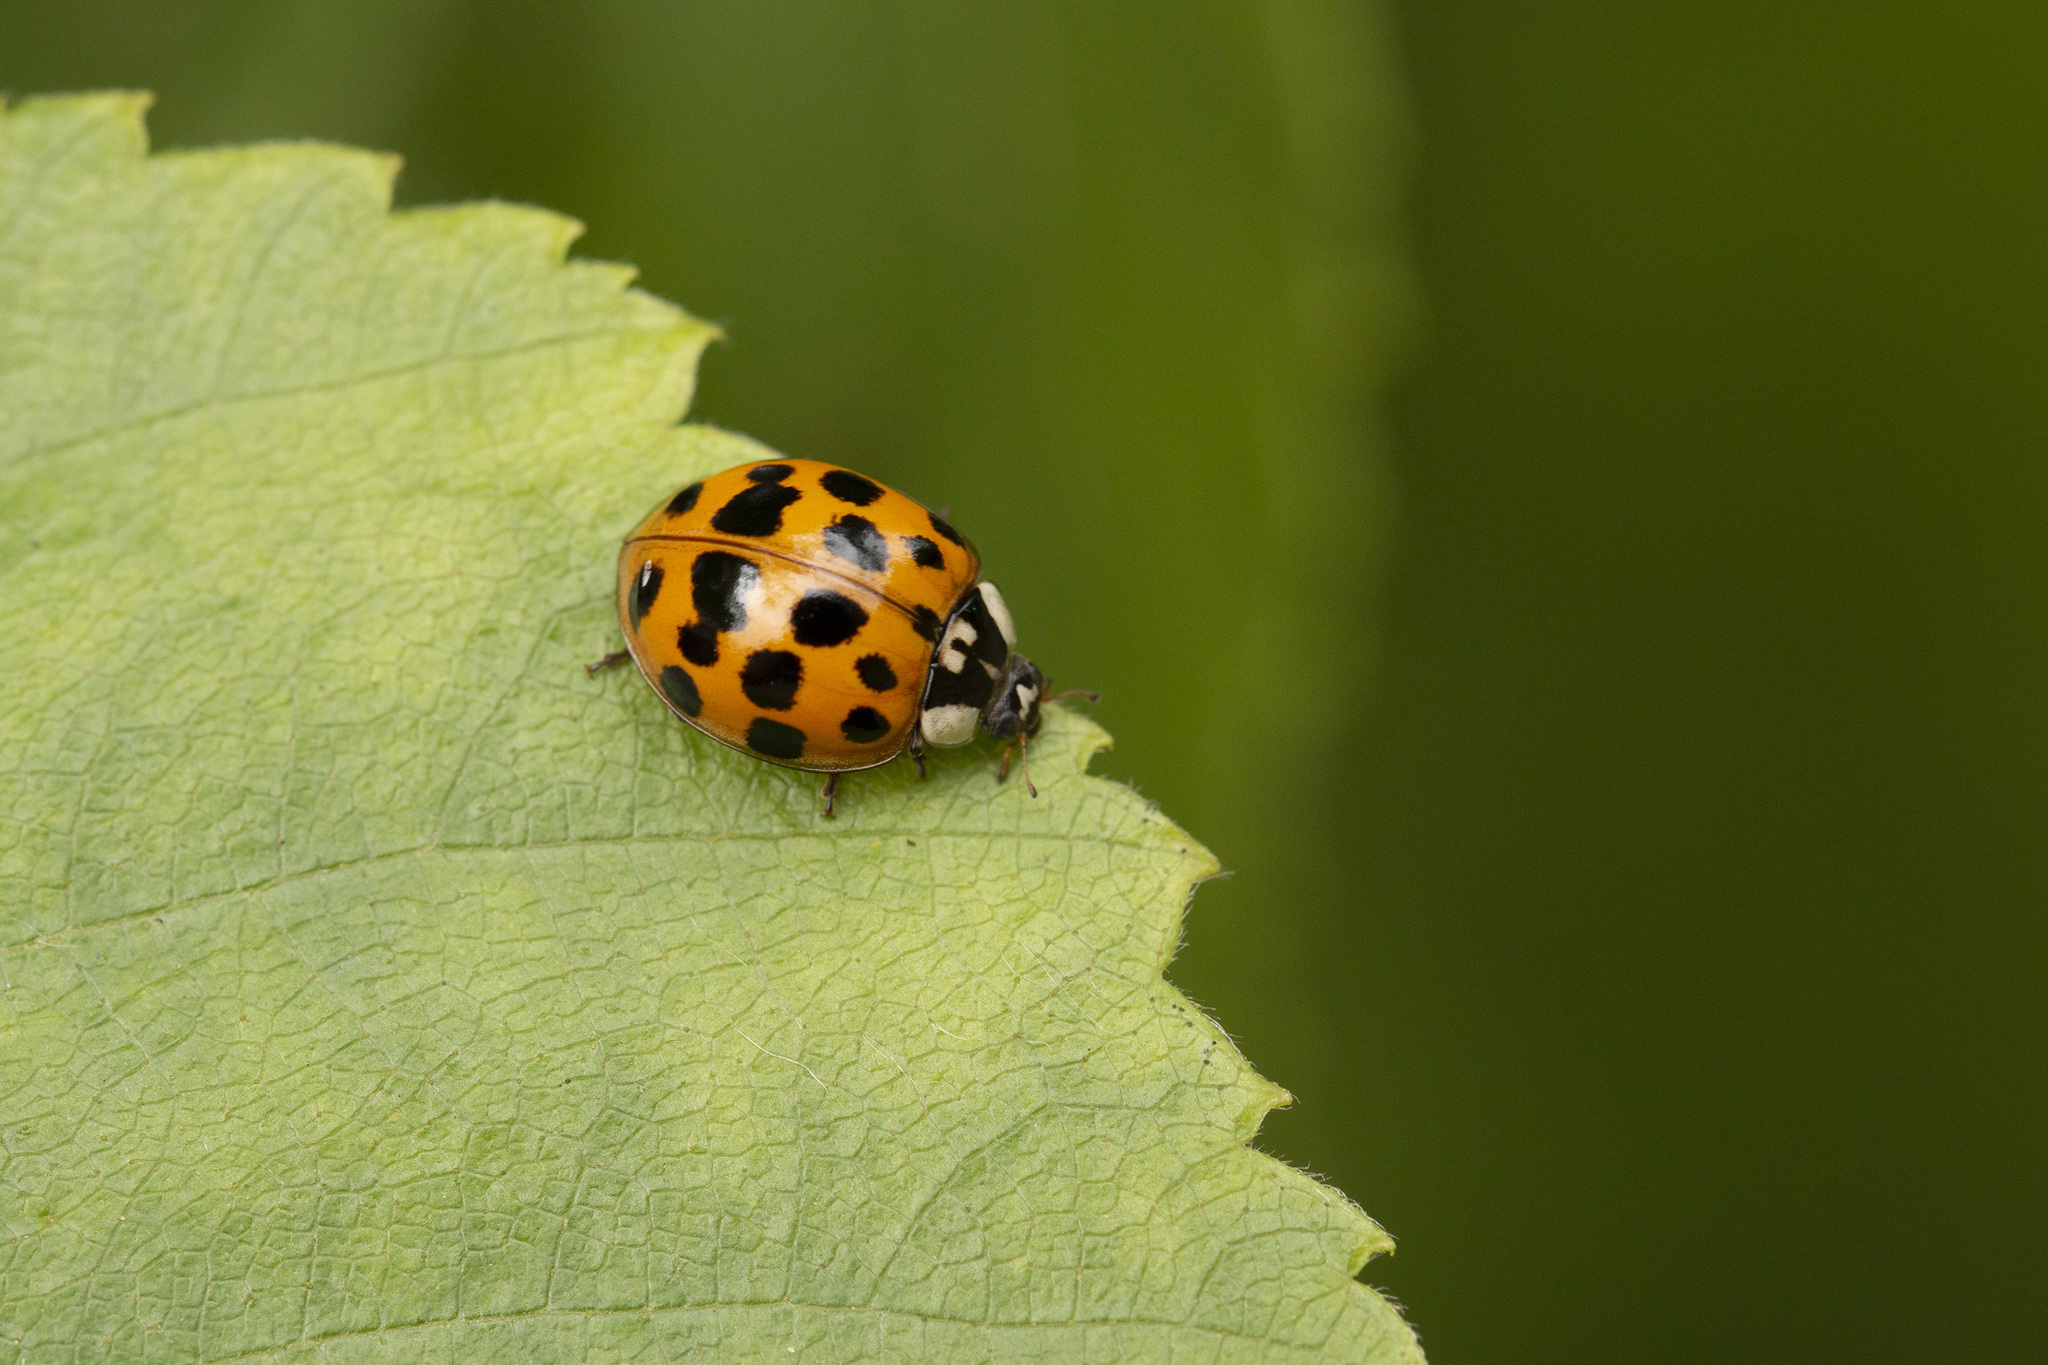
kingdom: Animalia
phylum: Arthropoda
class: Insecta
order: Coleoptera
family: Coccinellidae
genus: Harmonia
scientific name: Harmonia axyridis
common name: Harlequin ladybird
